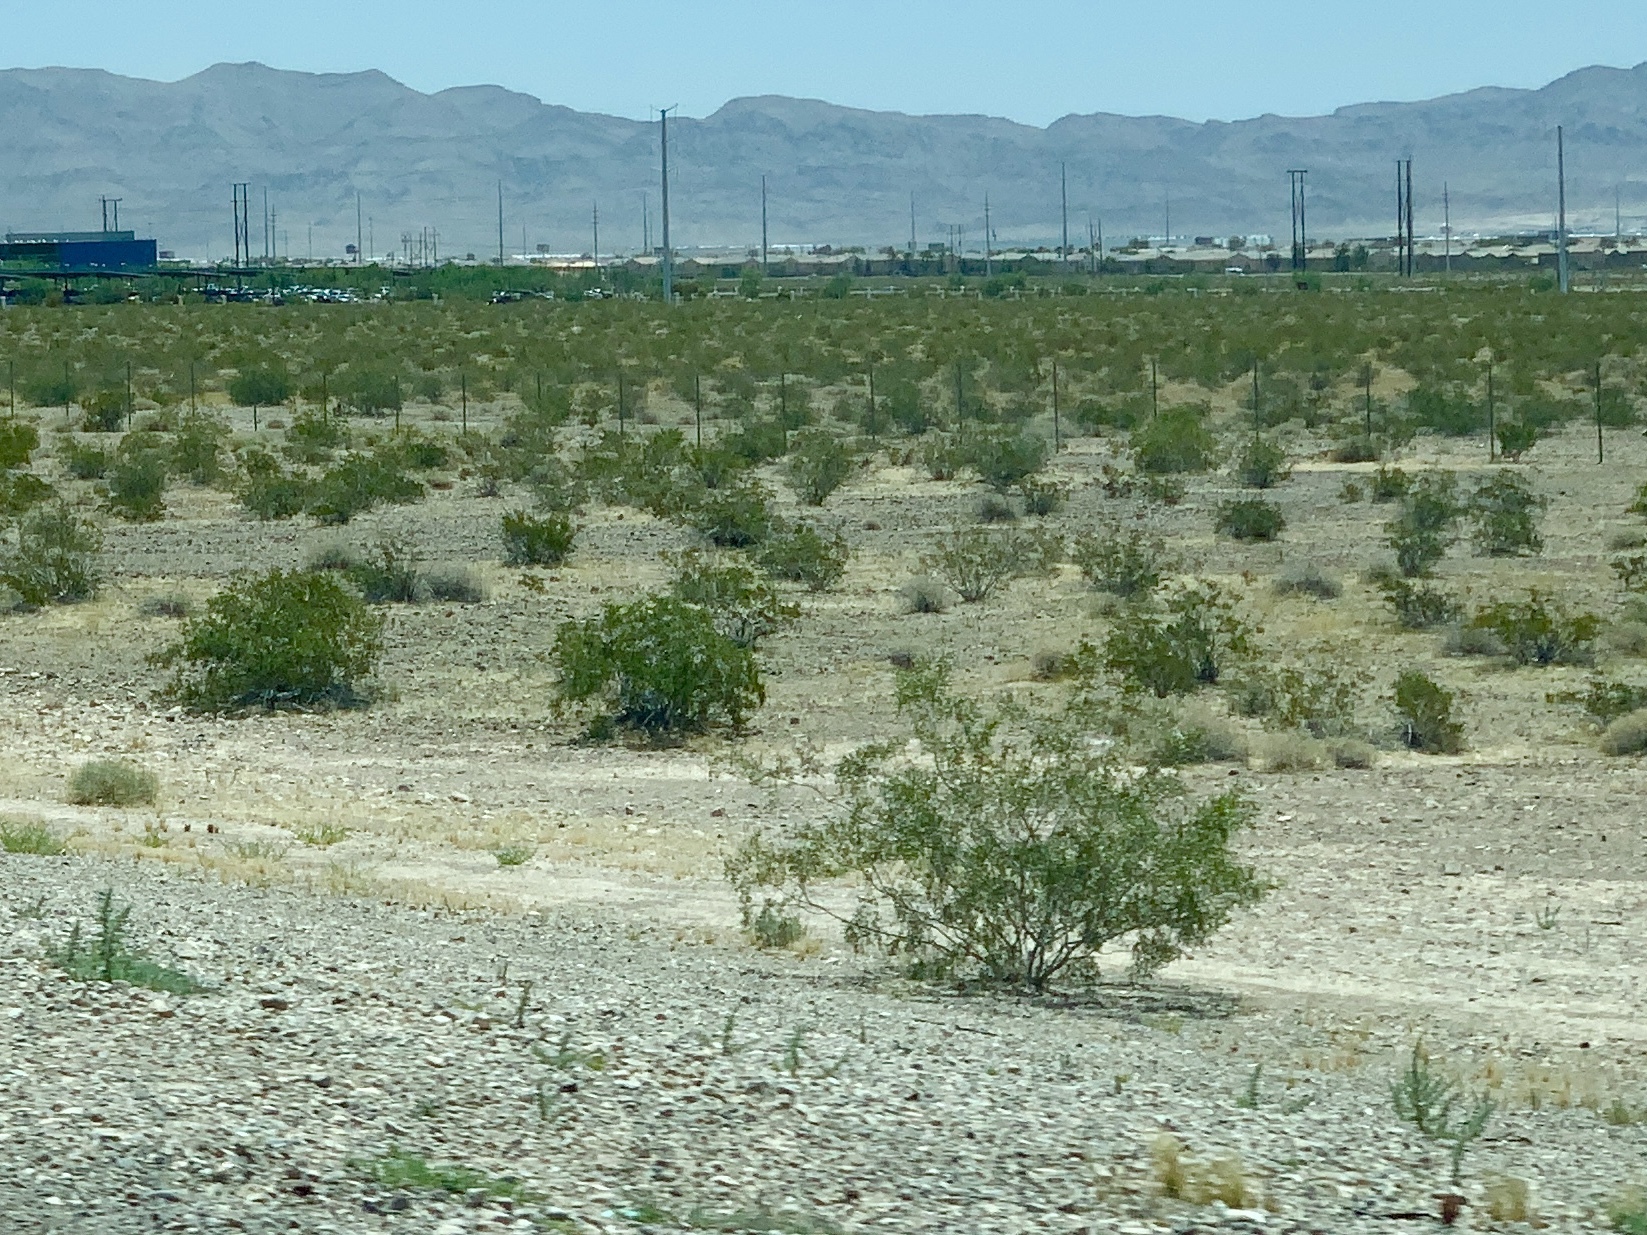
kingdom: Plantae
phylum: Tracheophyta
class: Magnoliopsida
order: Zygophyllales
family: Zygophyllaceae
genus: Larrea
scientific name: Larrea tridentata
